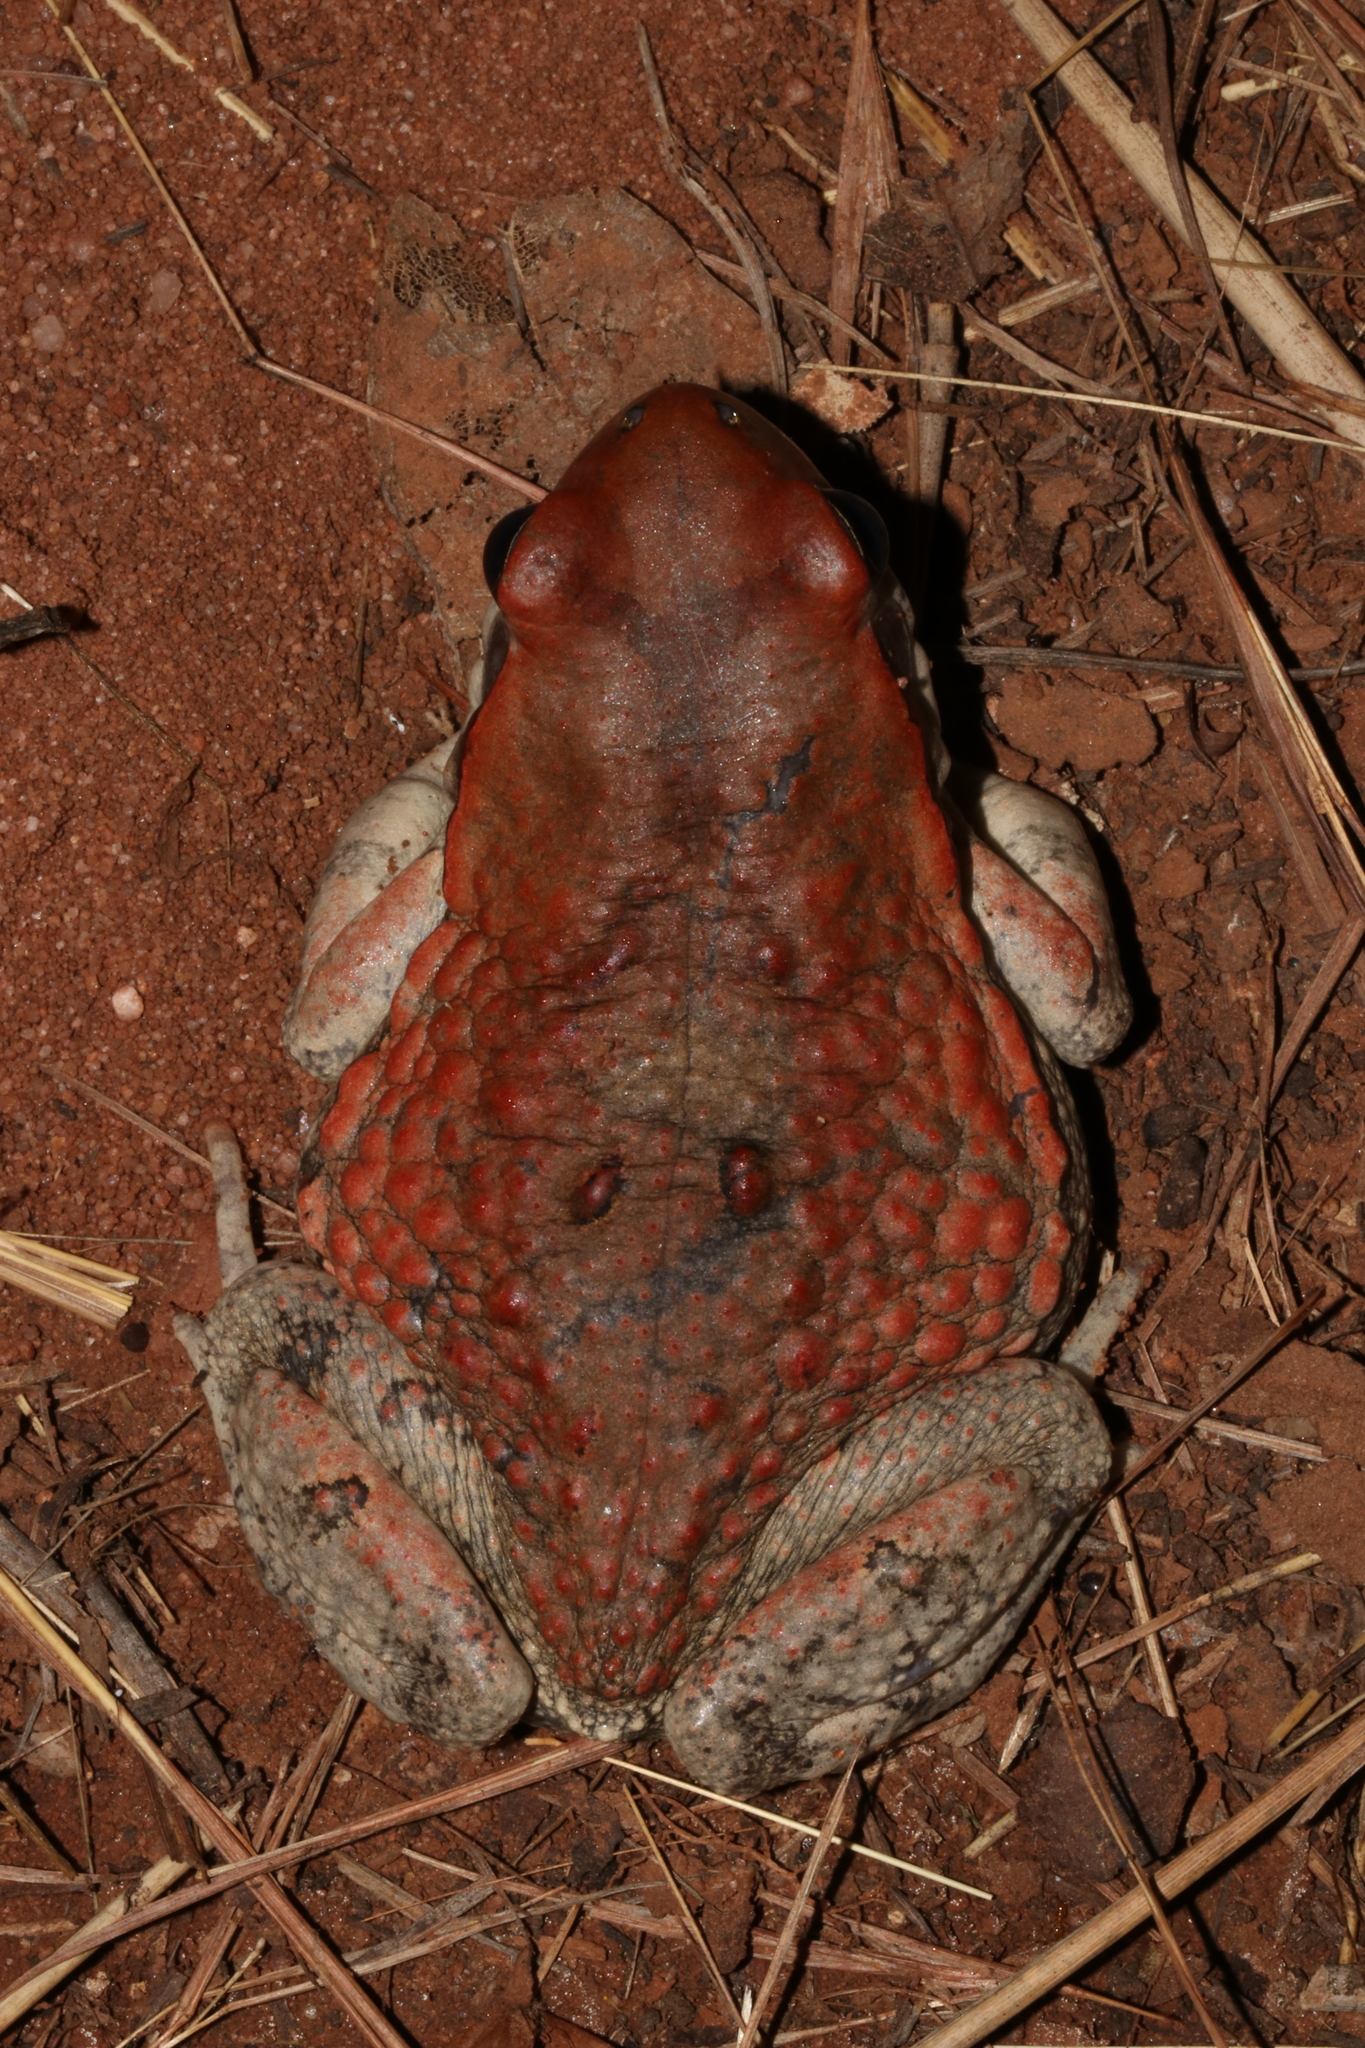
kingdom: Animalia
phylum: Chordata
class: Amphibia
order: Anura
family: Bufonidae
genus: Schismaderma
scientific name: Schismaderma carens
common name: African split-skin toad
